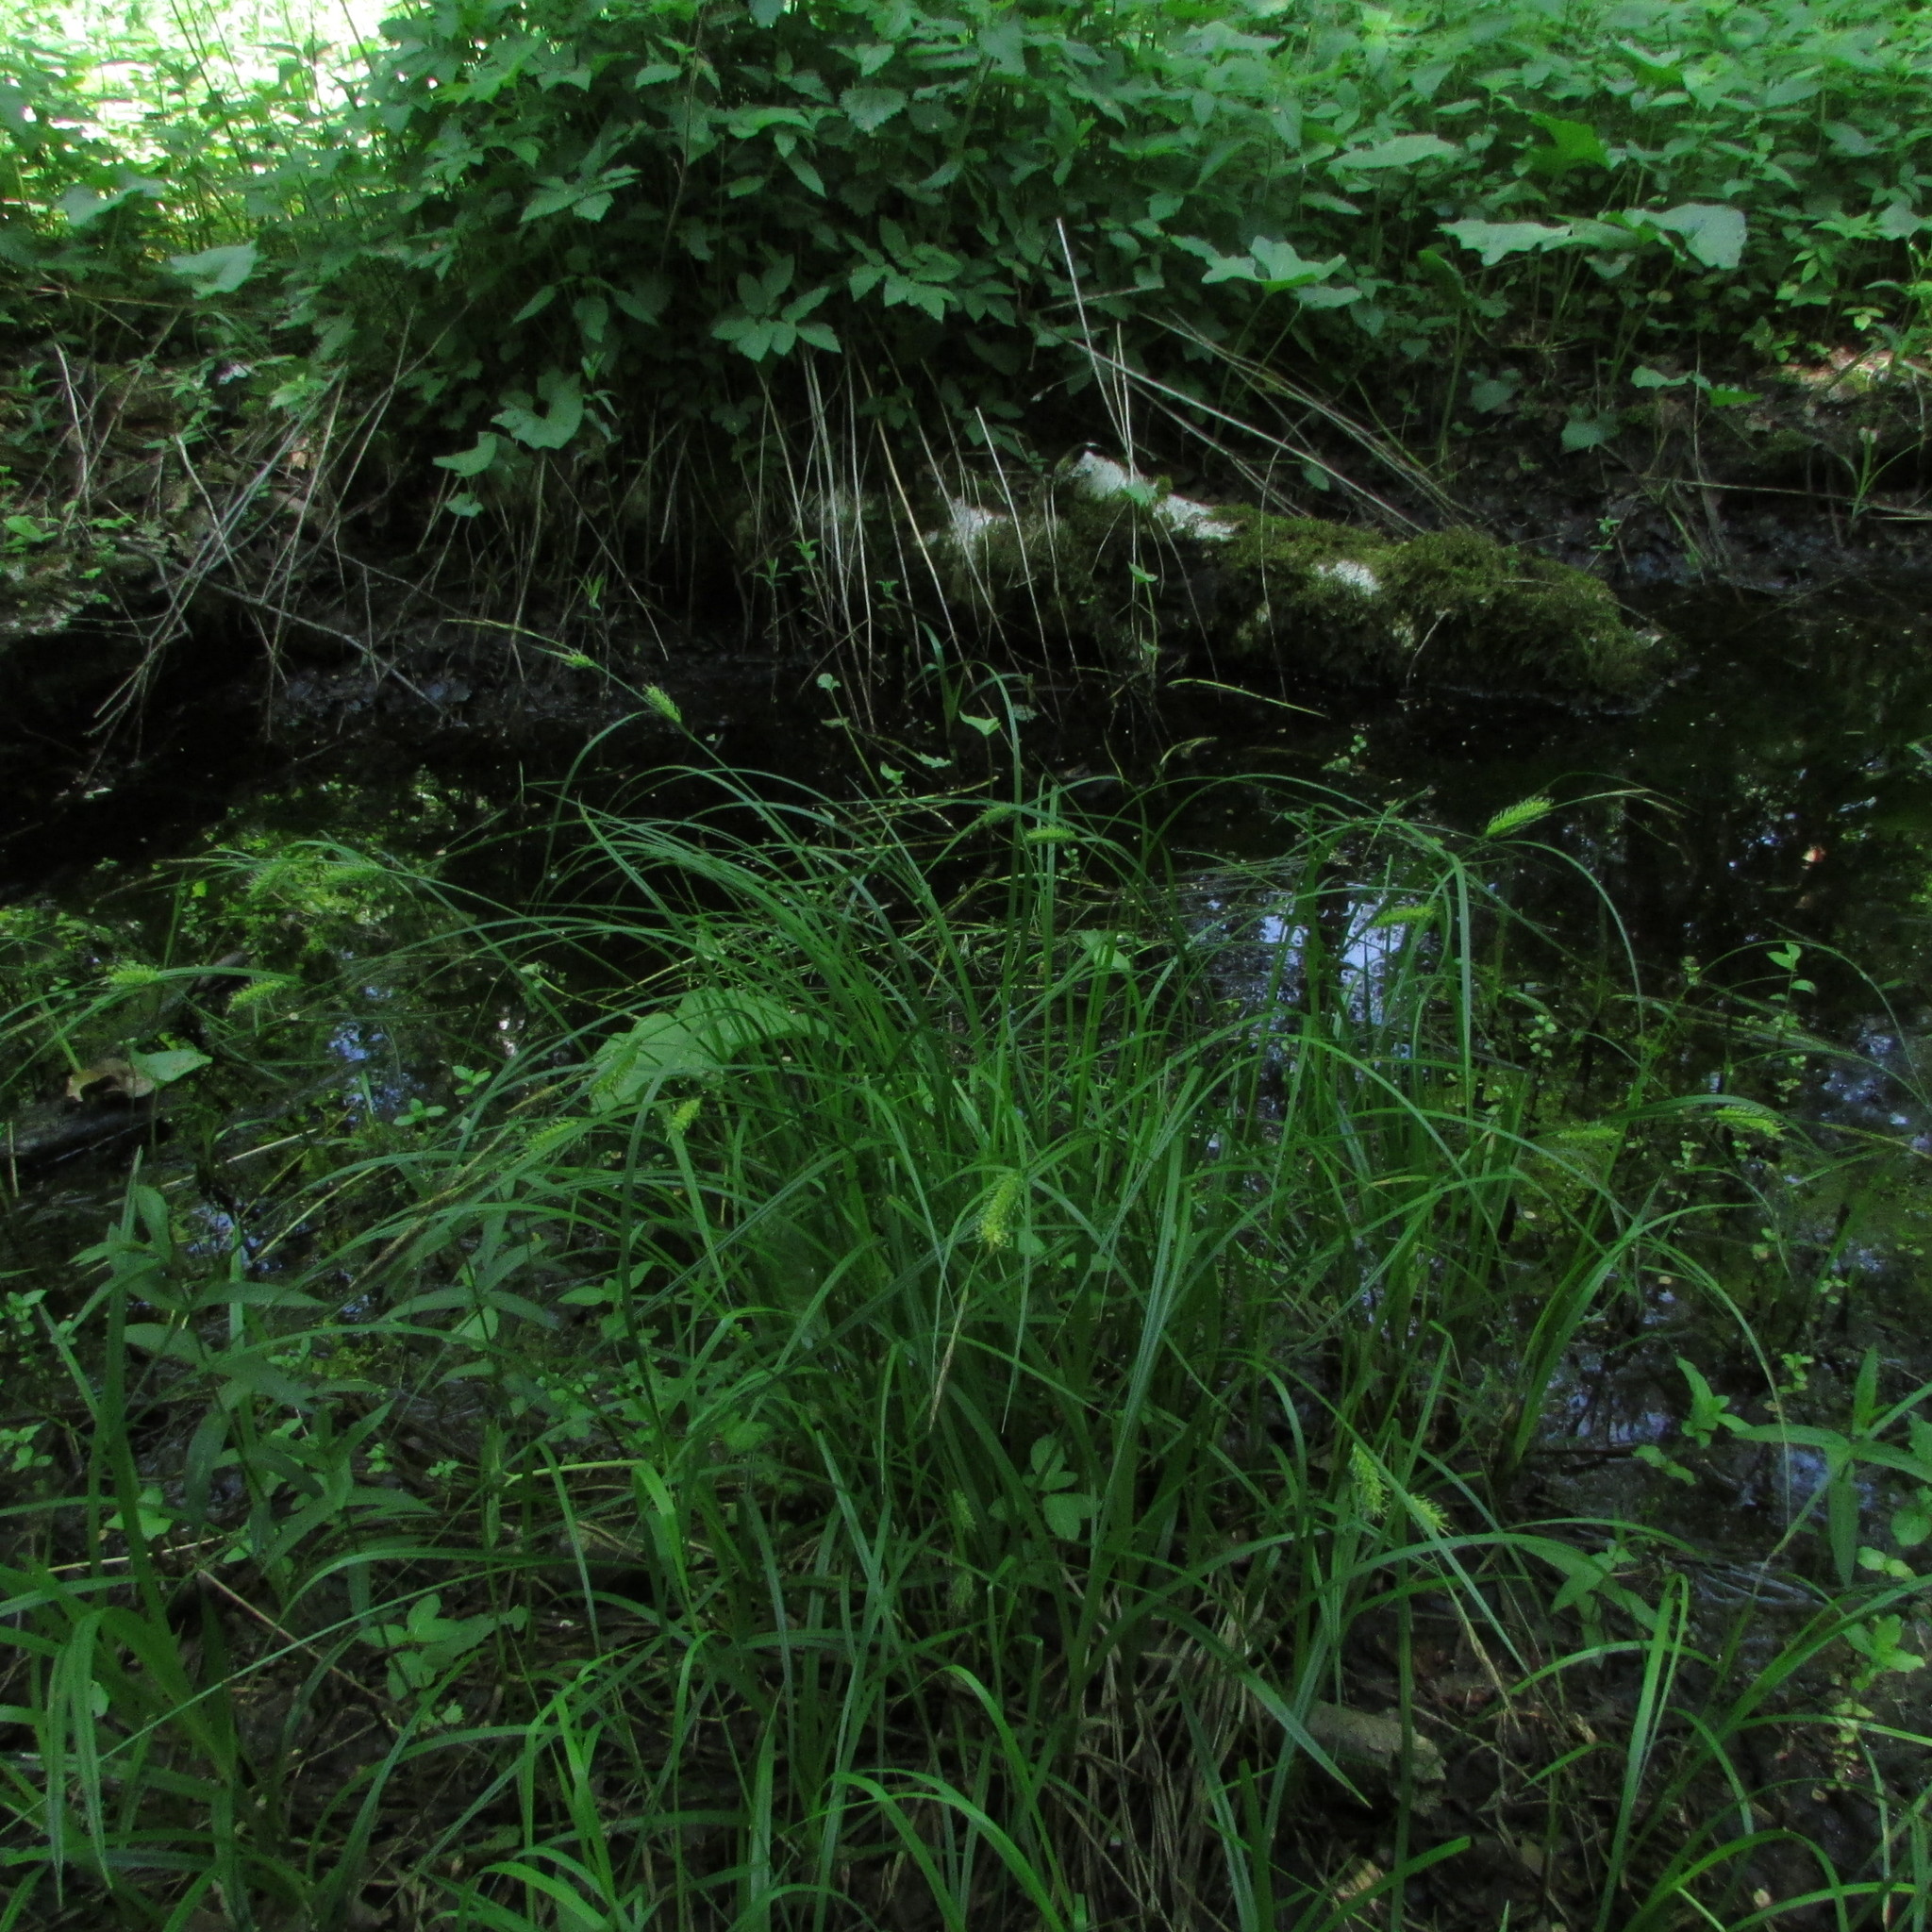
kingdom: Plantae
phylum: Tracheophyta
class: Liliopsida
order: Poales
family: Cyperaceae
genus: Carex
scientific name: Carex vesicaria
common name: Bladder-sedge
